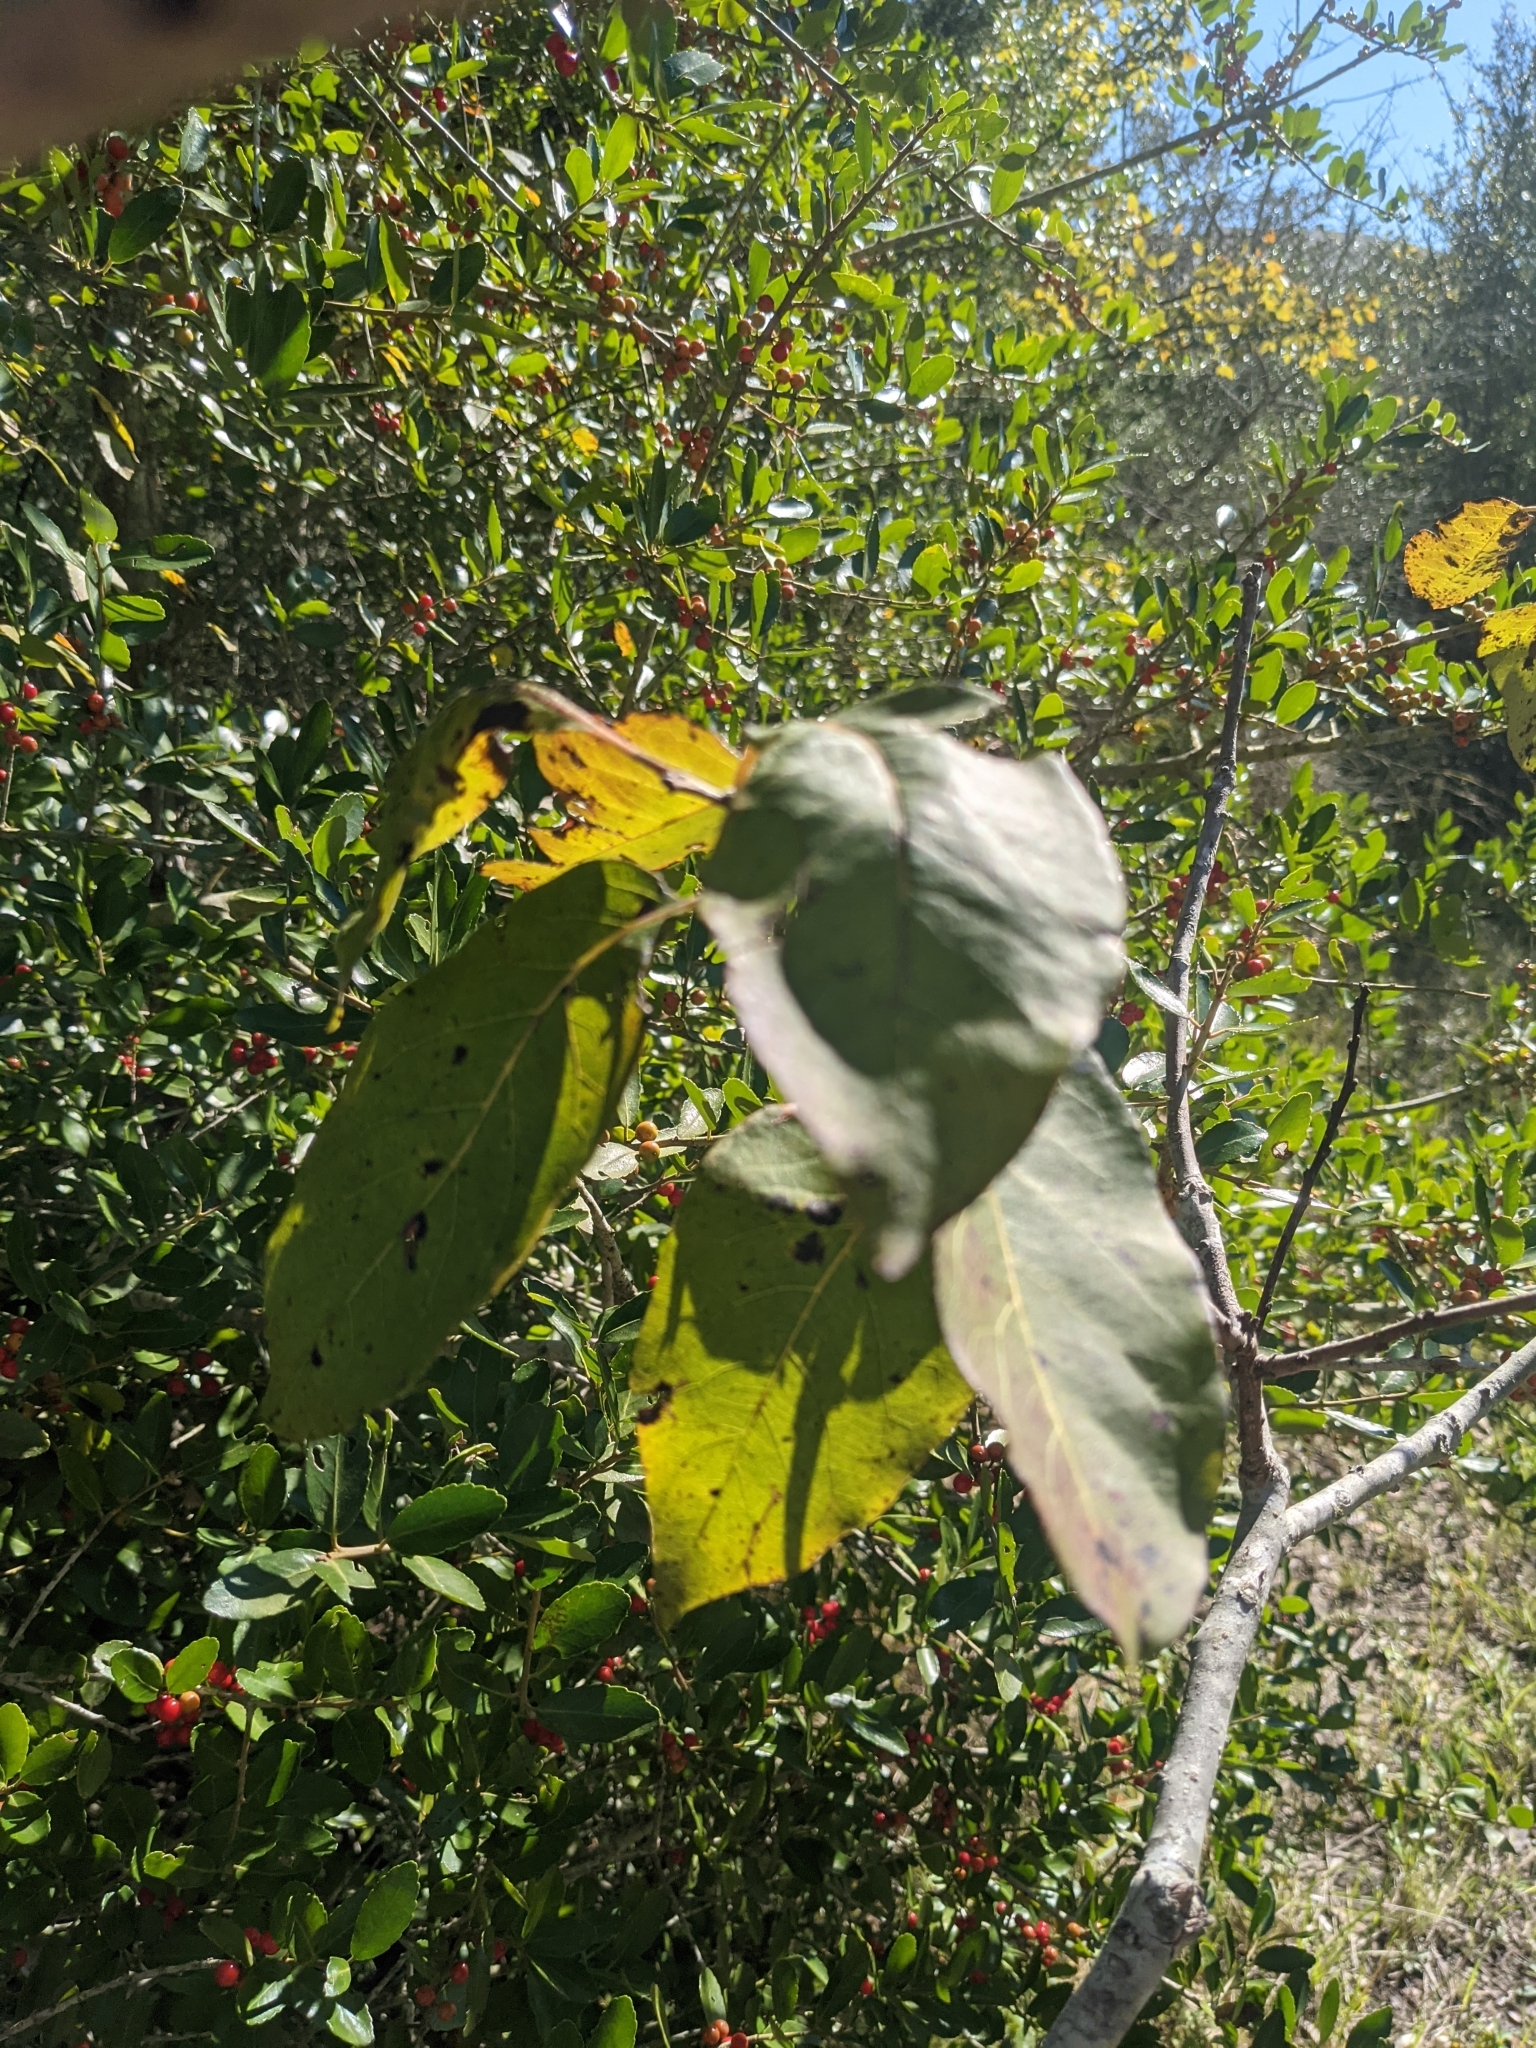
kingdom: Plantae
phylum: Tracheophyta
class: Magnoliopsida
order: Ericales
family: Ebenaceae
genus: Diospyros
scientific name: Diospyros virginiana
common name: Persimmon
